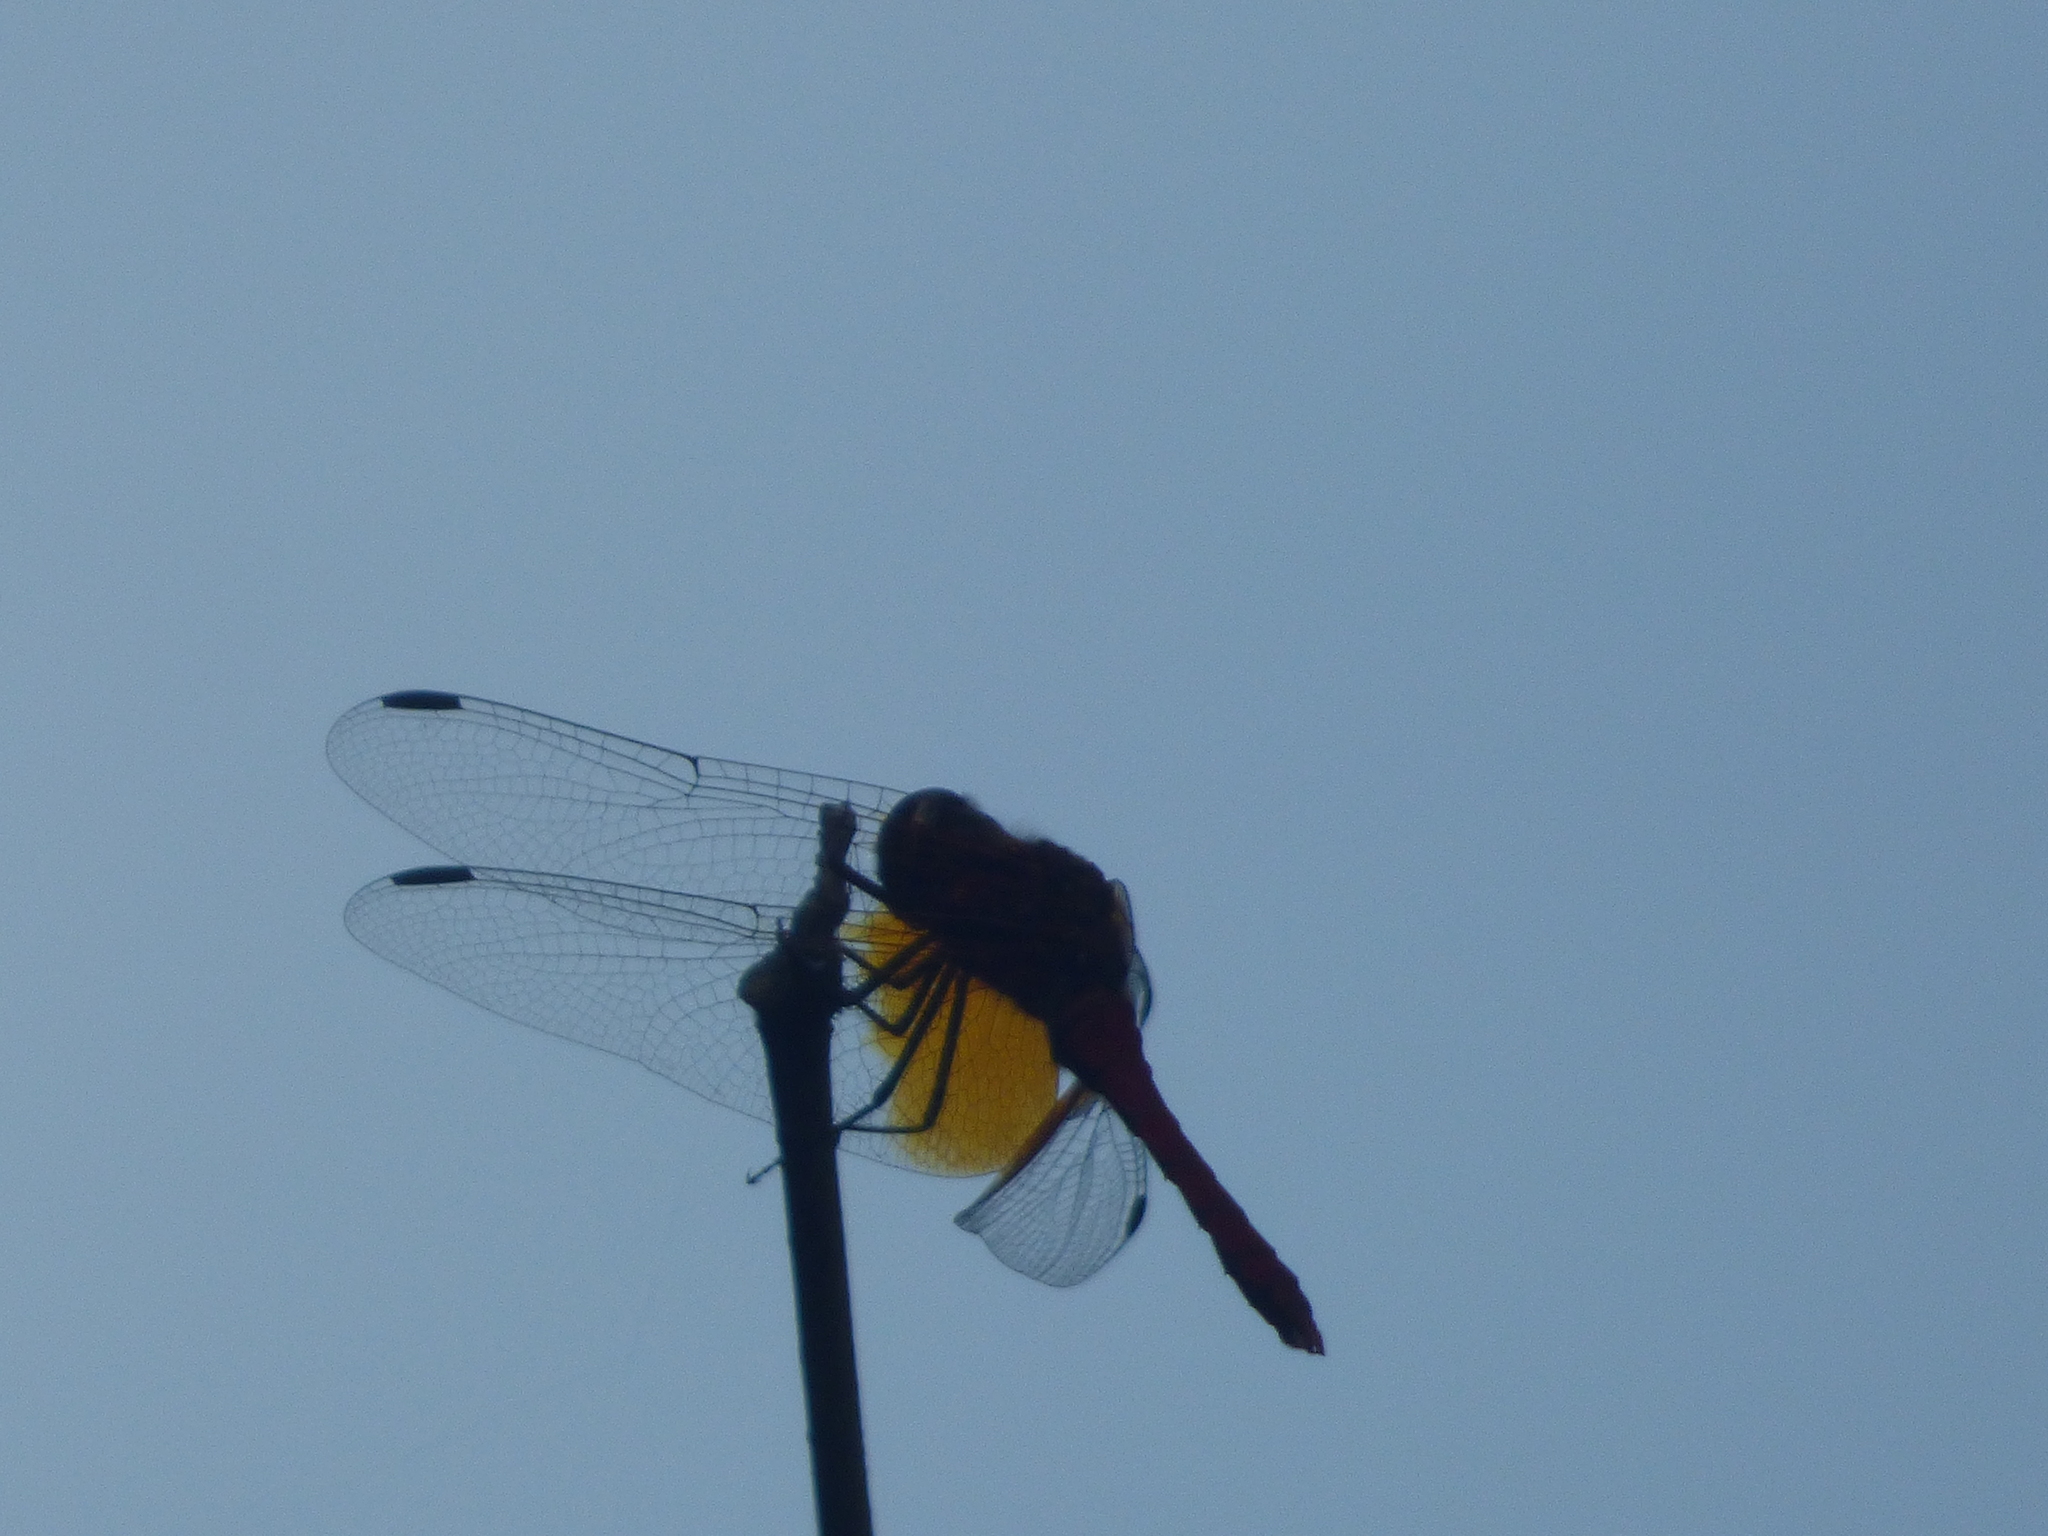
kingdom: Animalia
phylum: Arthropoda
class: Insecta
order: Odonata
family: Libellulidae
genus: Sympetrum
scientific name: Sympetrum speciosum
